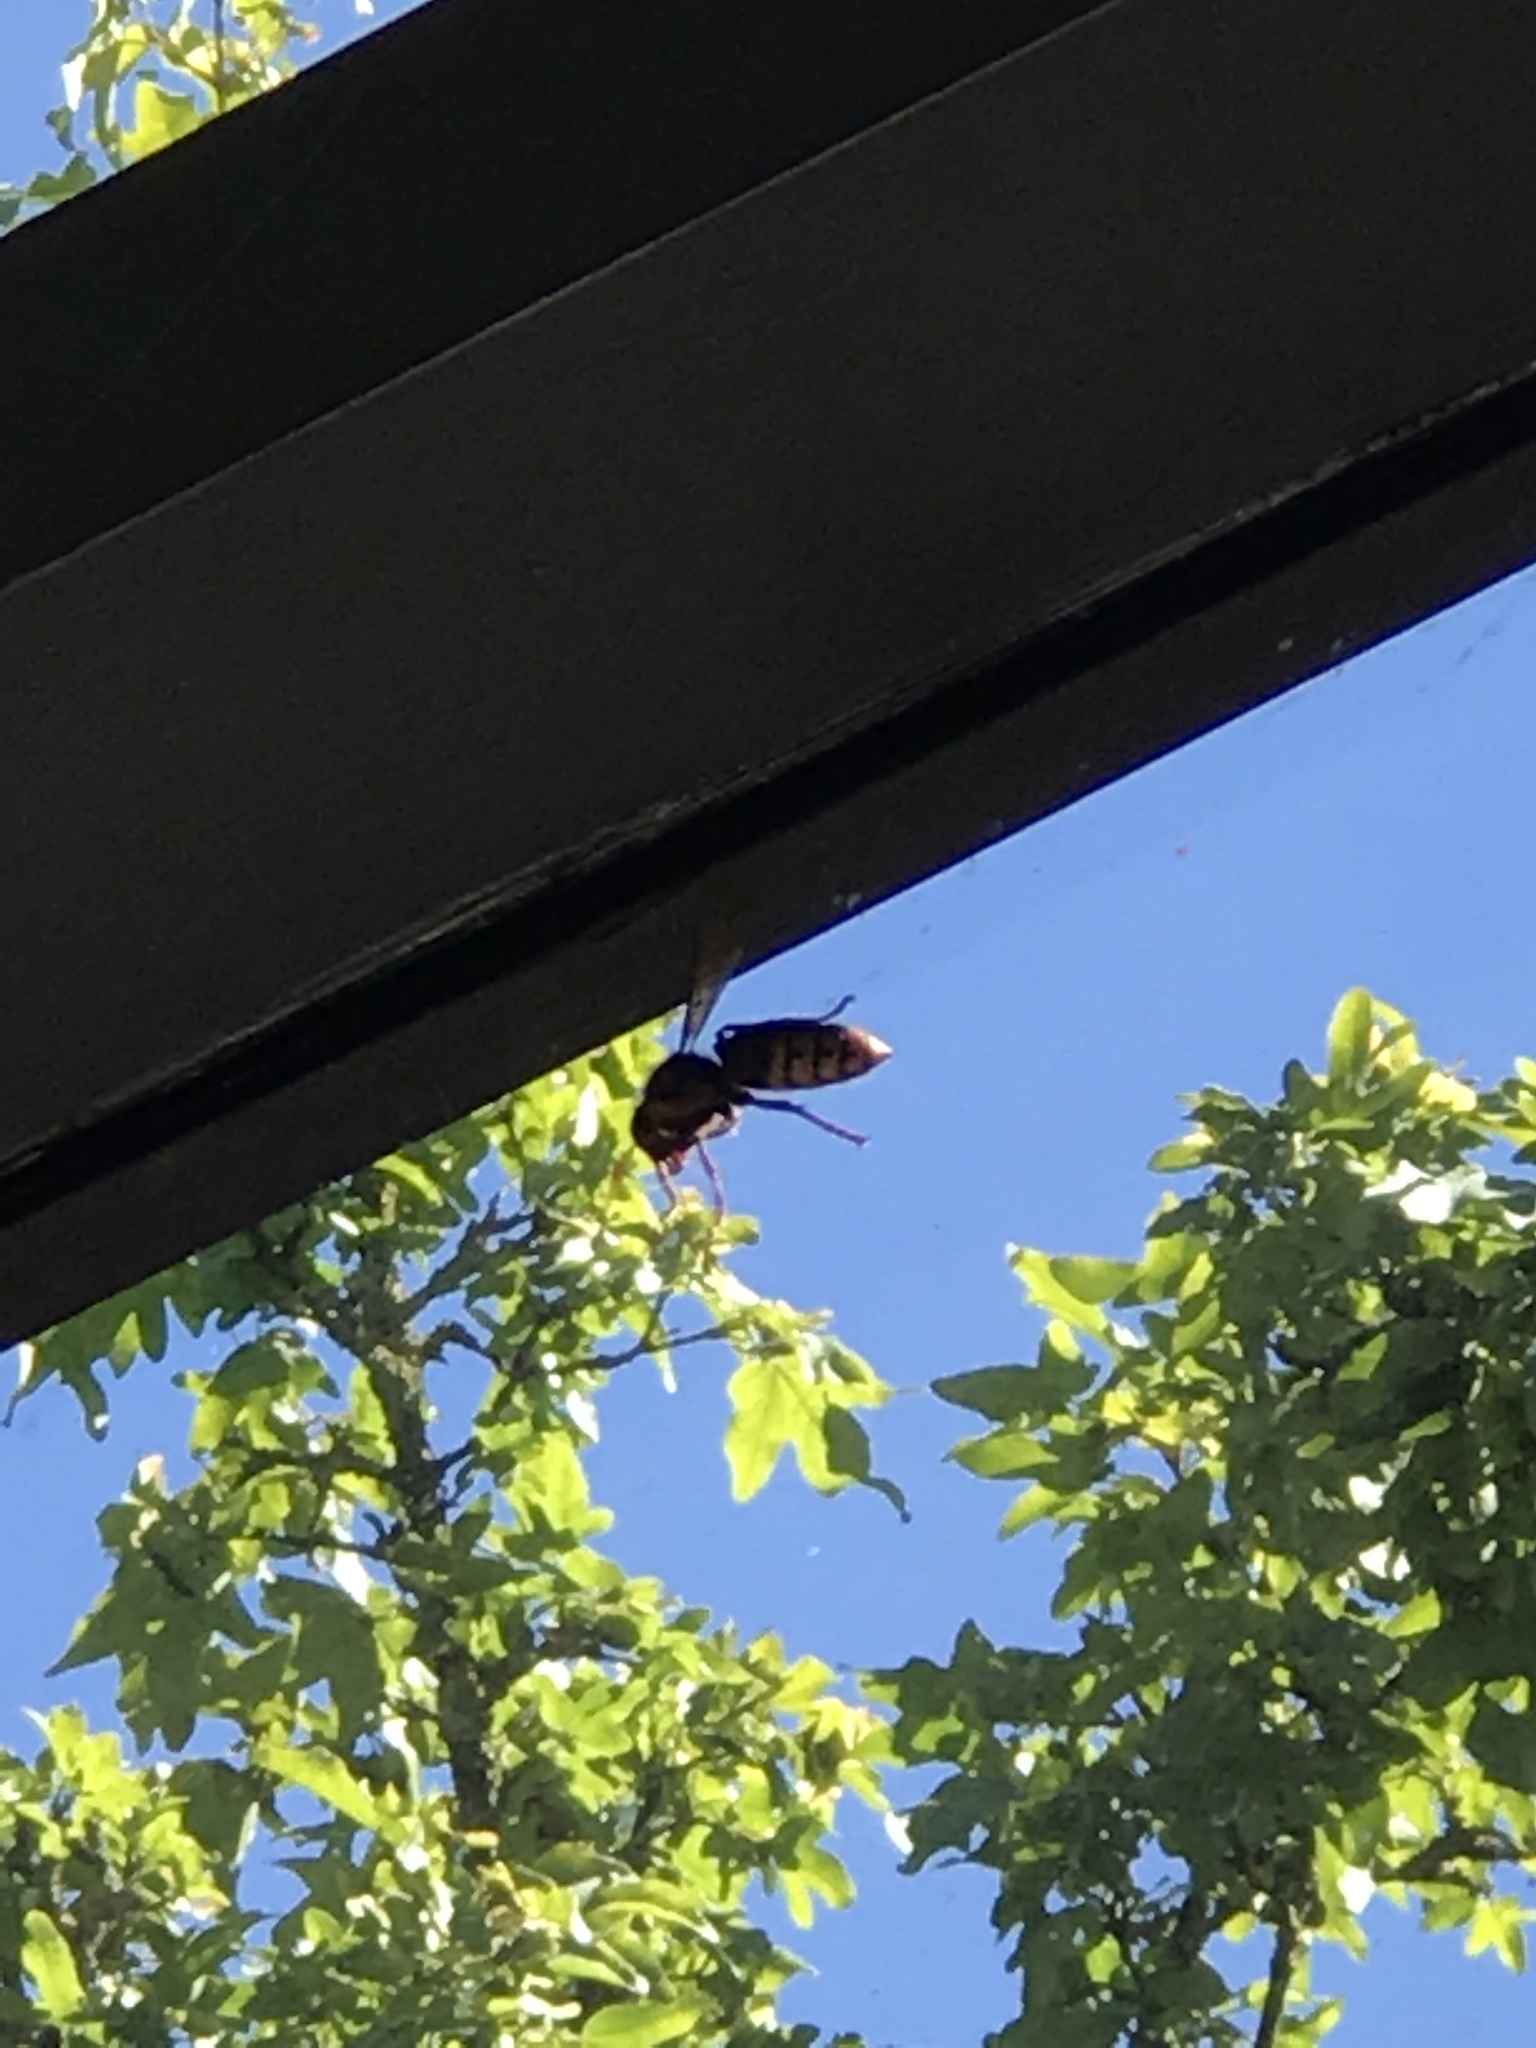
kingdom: Animalia
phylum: Arthropoda
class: Insecta
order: Hymenoptera
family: Vespidae
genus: Vespa
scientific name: Vespa crabro
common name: Hornet
